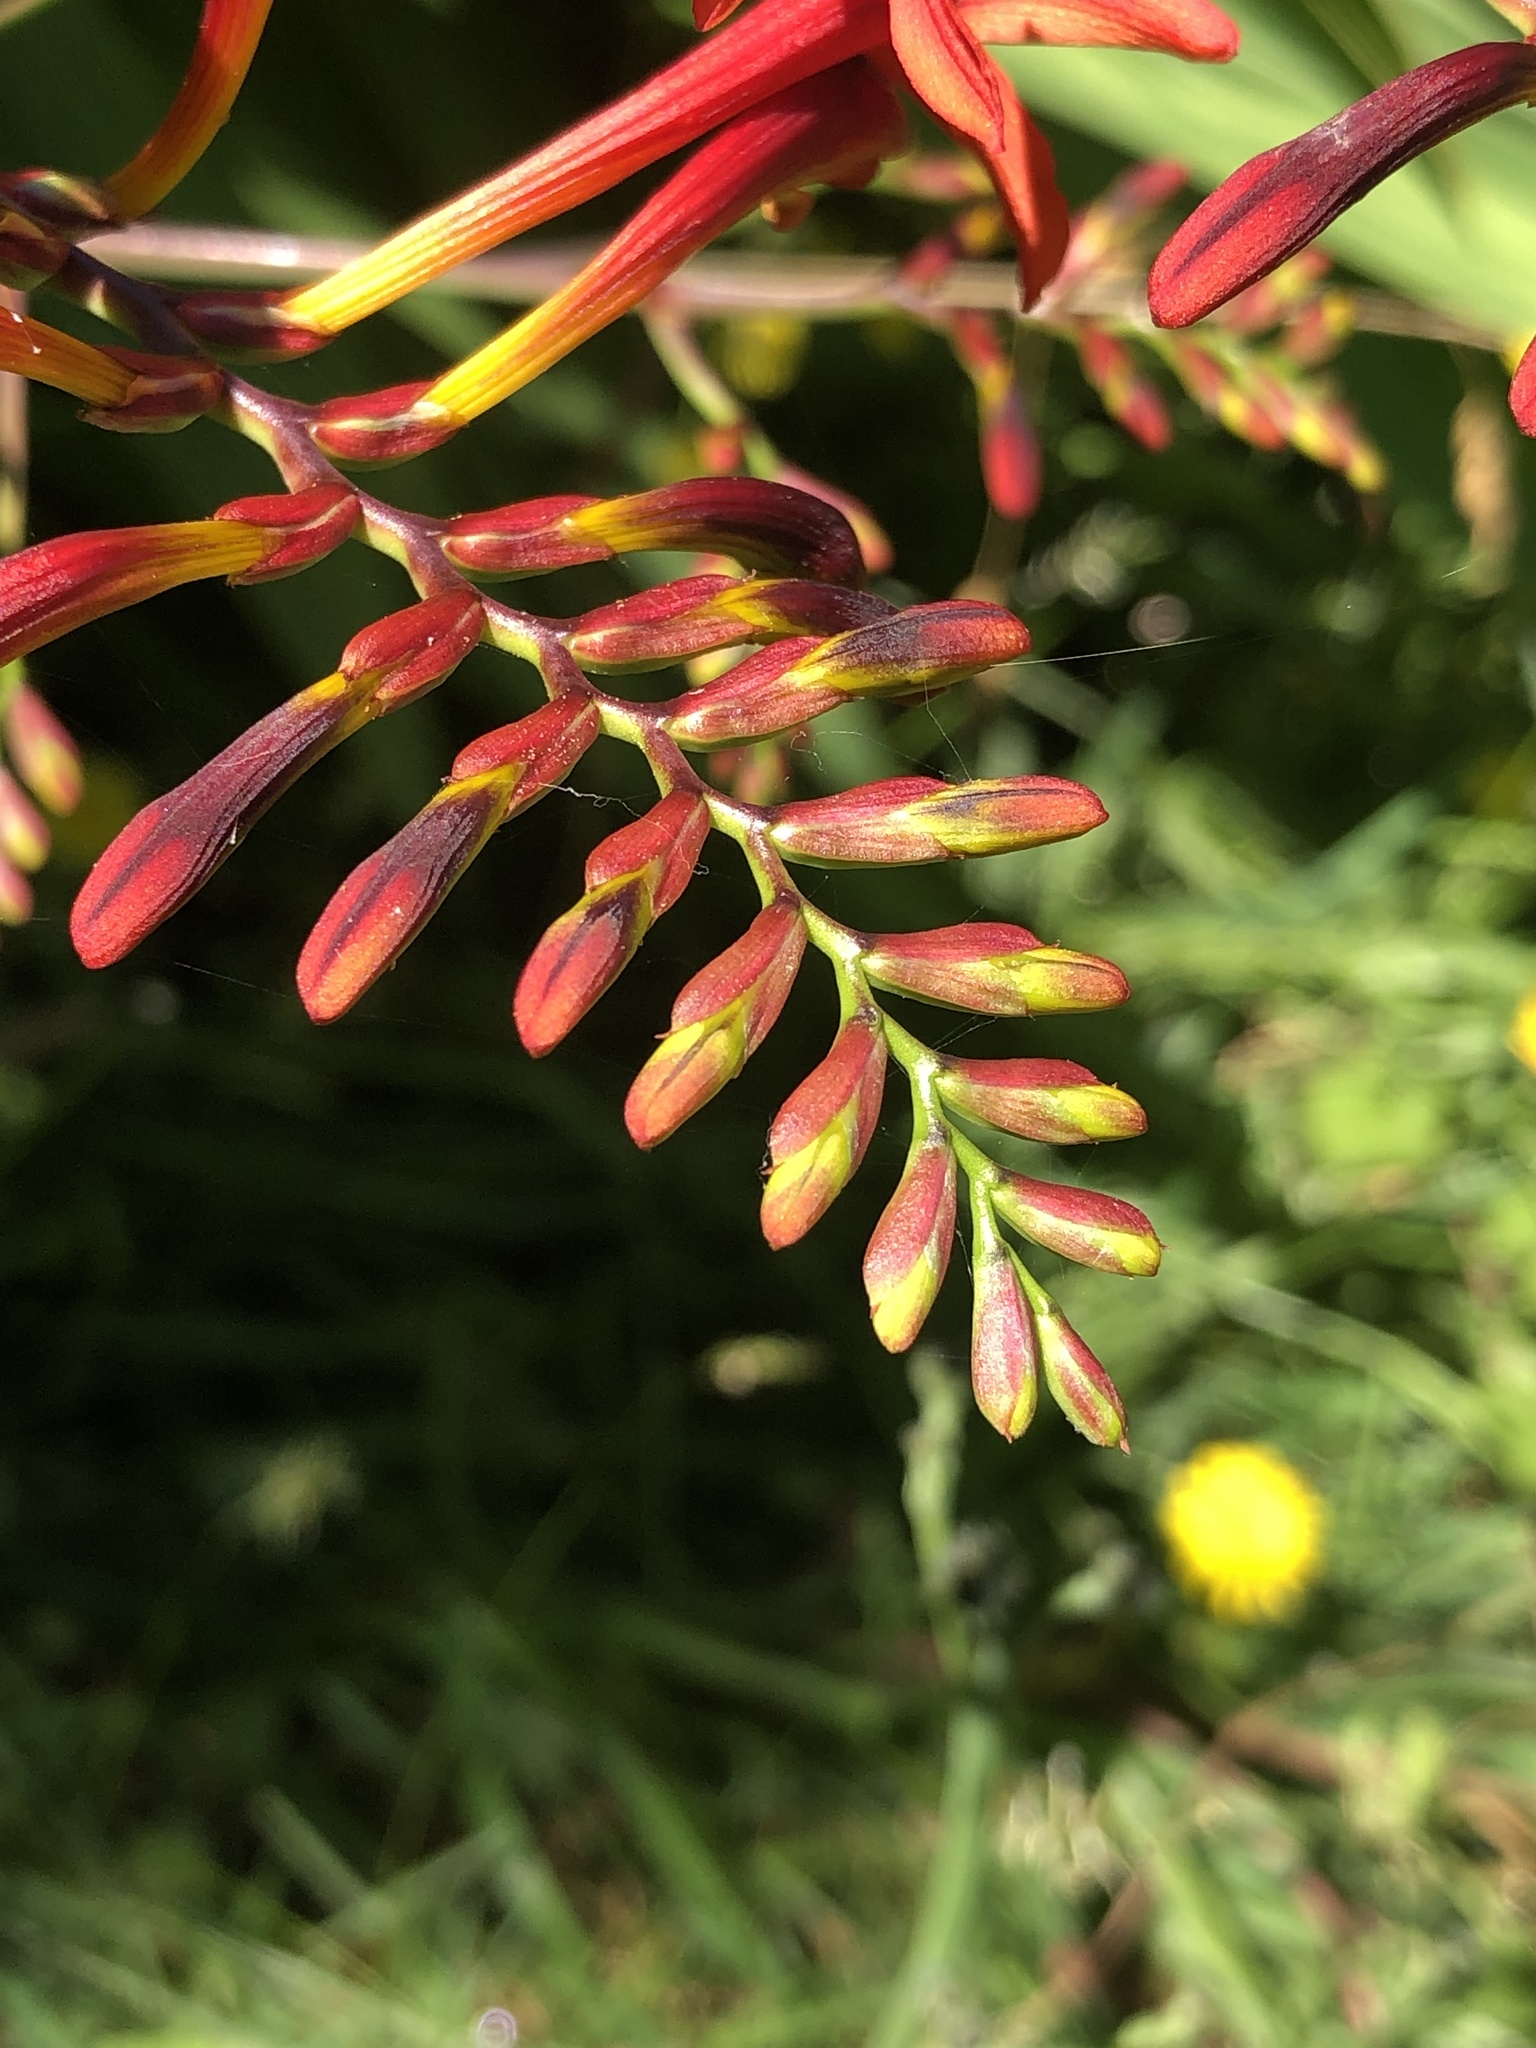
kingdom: Plantae
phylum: Tracheophyta
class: Liliopsida
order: Asparagales
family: Iridaceae
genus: Crocosmia
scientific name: Crocosmia
